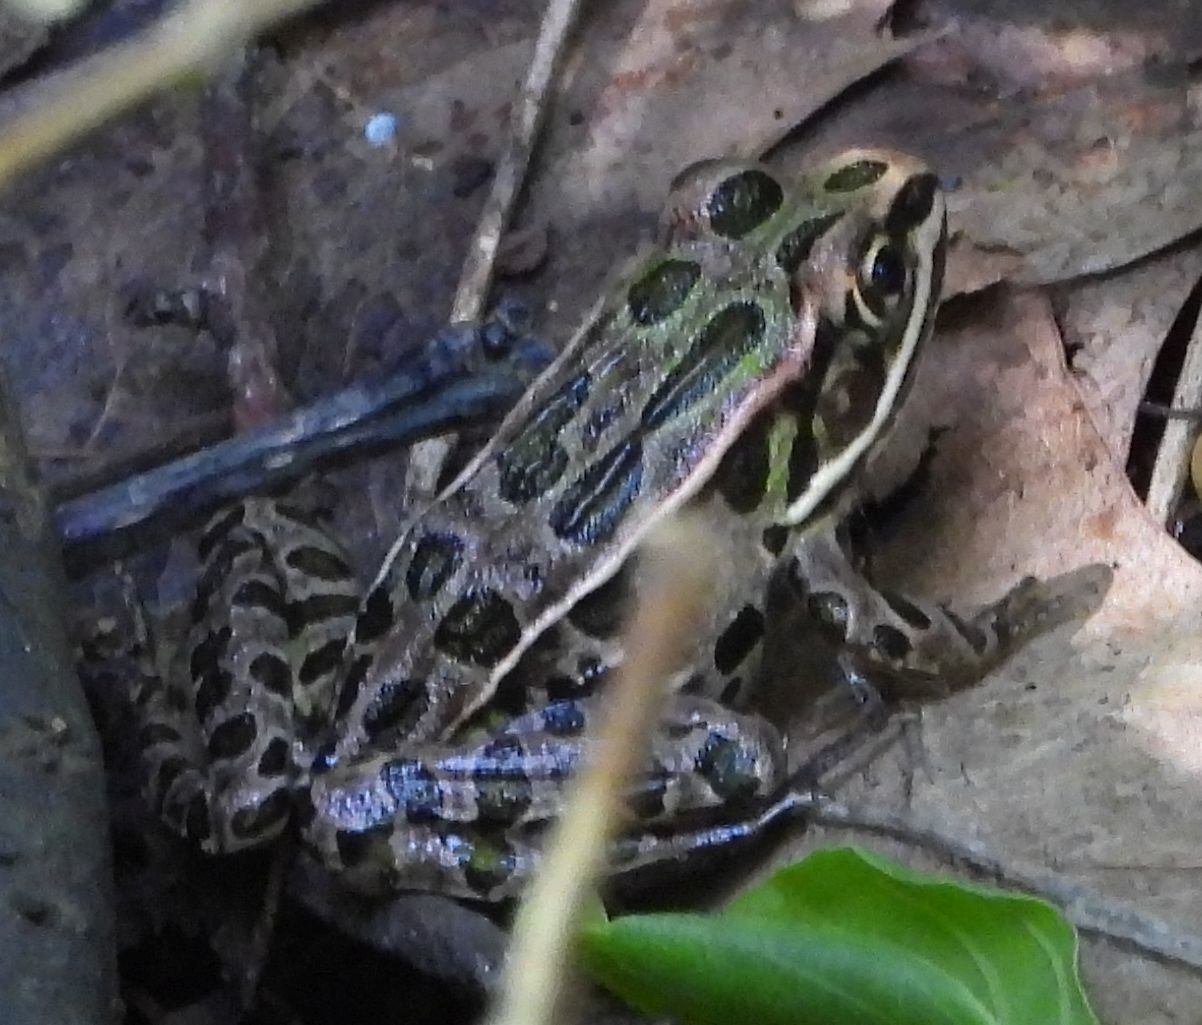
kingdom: Animalia
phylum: Chordata
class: Amphibia
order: Anura
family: Ranidae
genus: Lithobates
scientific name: Lithobates pipiens
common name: Northern leopard frog
